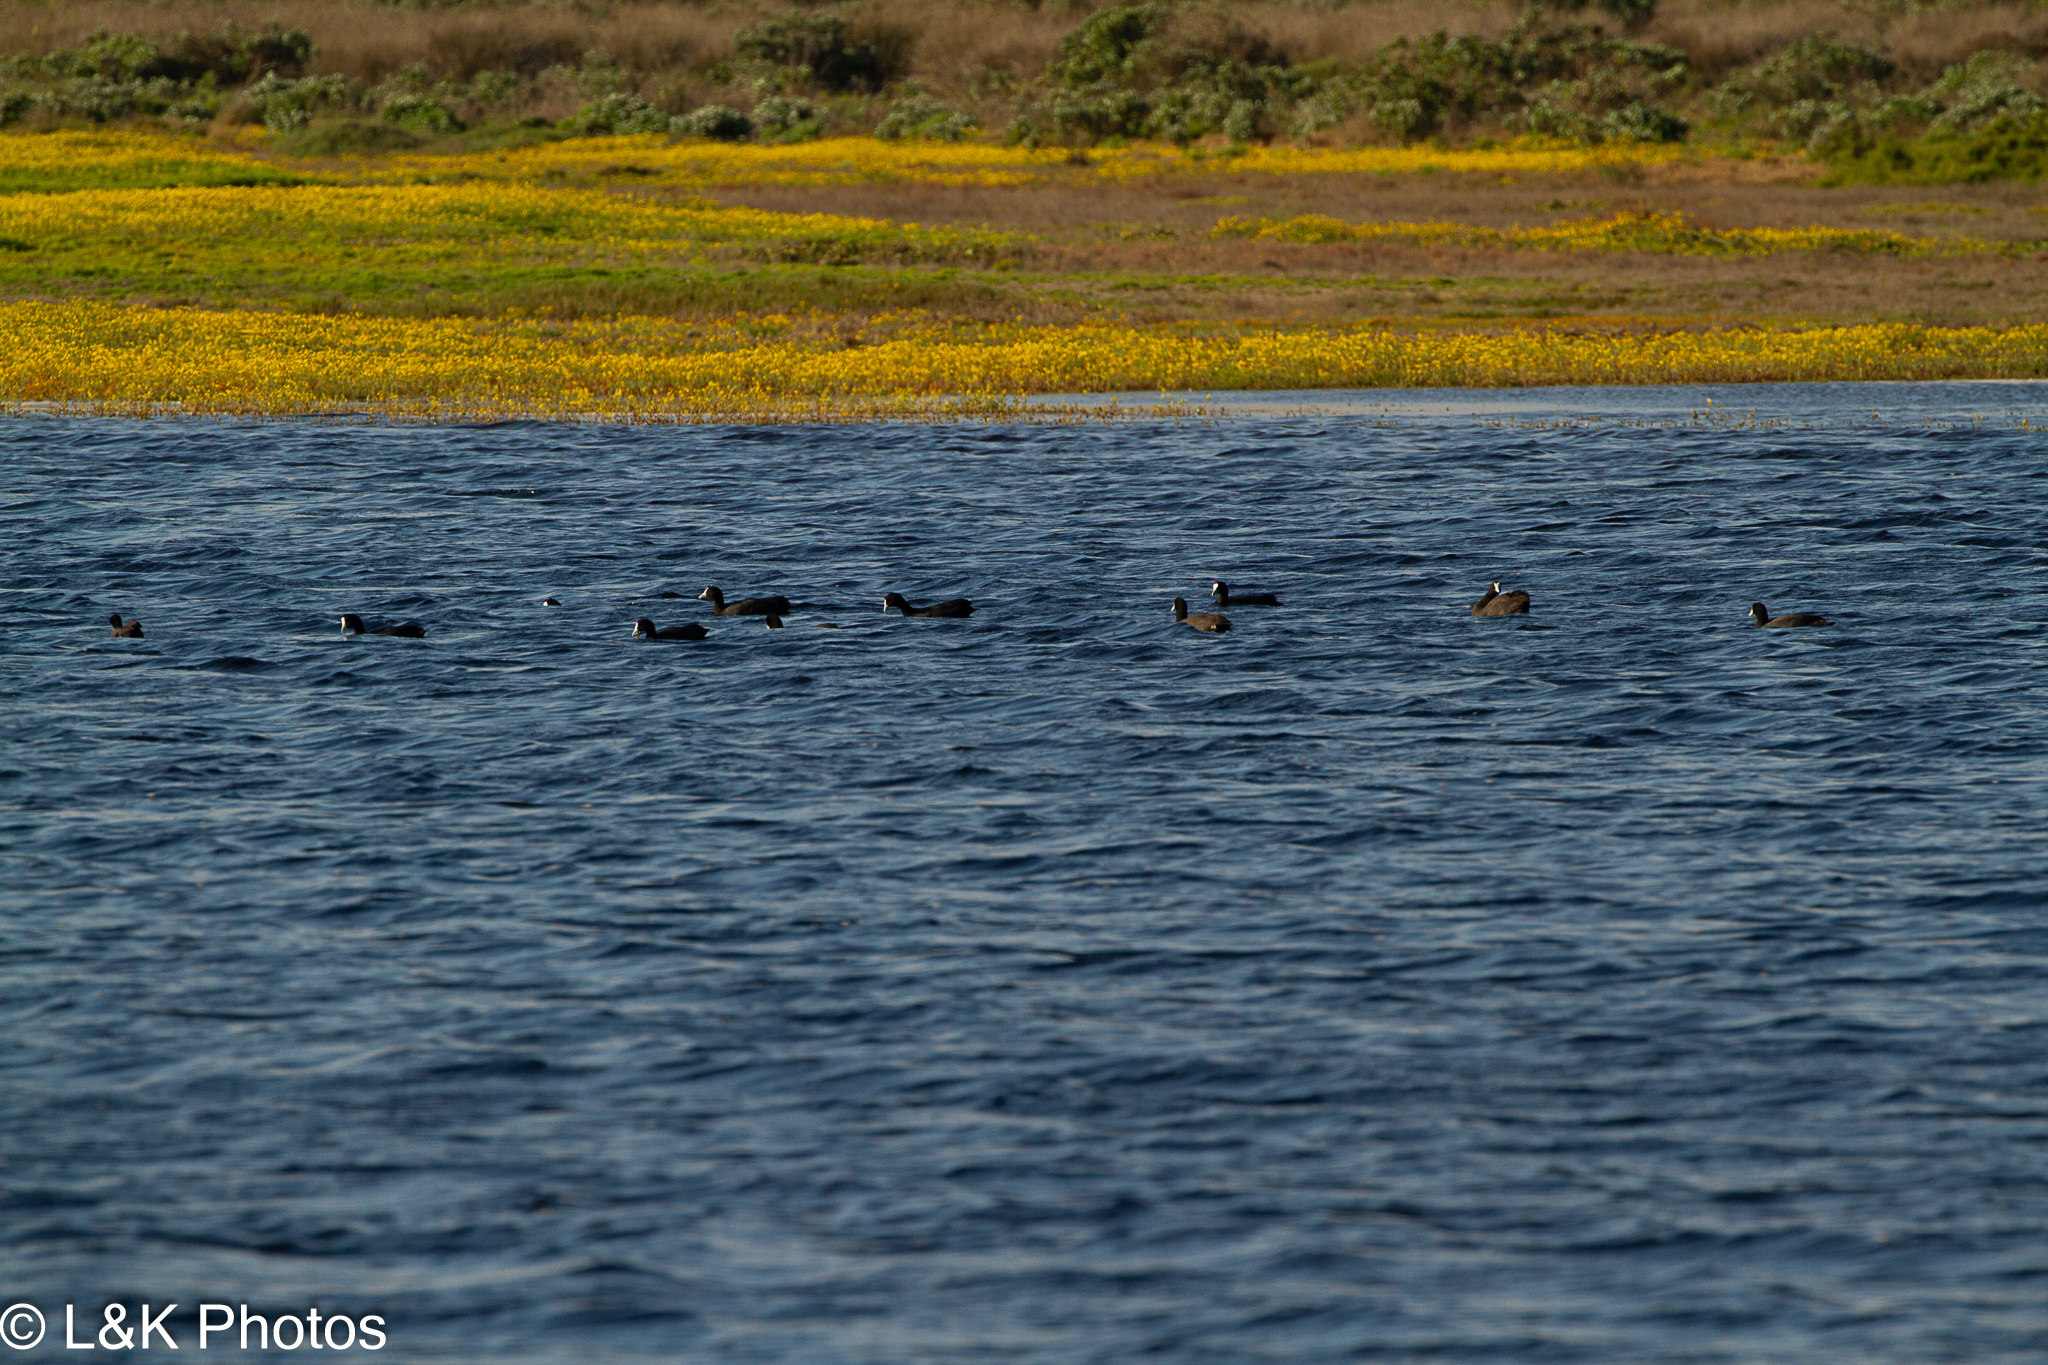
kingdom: Animalia
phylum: Chordata
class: Aves
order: Gruiformes
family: Rallidae
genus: Fulica
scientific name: Fulica cristata
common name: Red-knobbed coot
